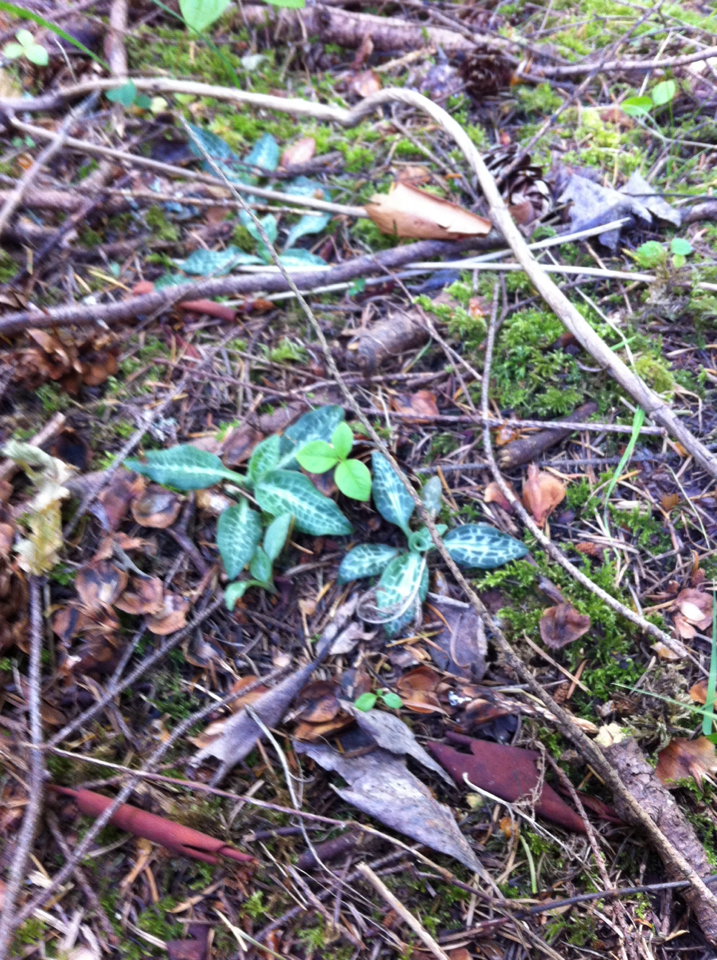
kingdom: Plantae
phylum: Tracheophyta
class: Liliopsida
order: Asparagales
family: Orchidaceae
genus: Goodyera
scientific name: Goodyera oblongifolia
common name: Giant rattlesnake-plantain
